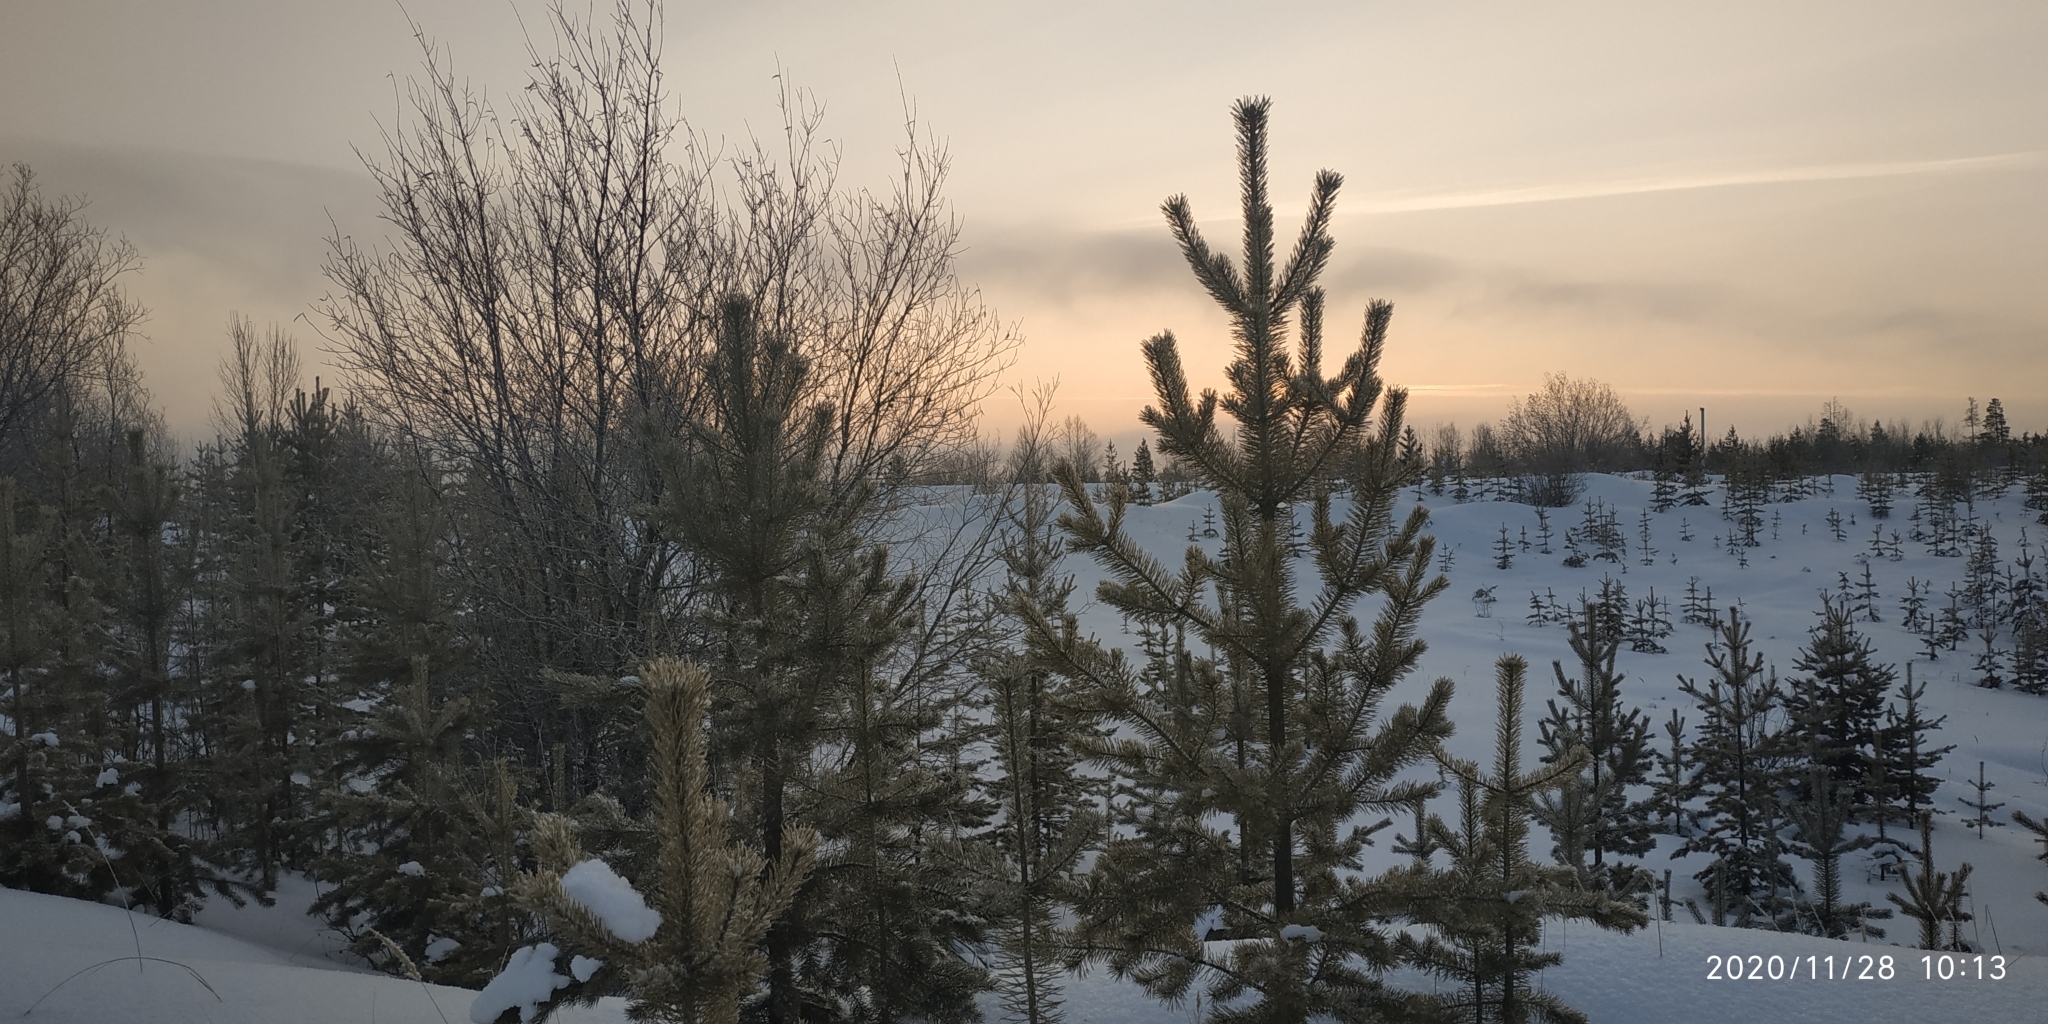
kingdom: Plantae
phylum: Tracheophyta
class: Pinopsida
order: Pinales
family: Pinaceae
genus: Pinus
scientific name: Pinus sylvestris
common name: Scots pine
